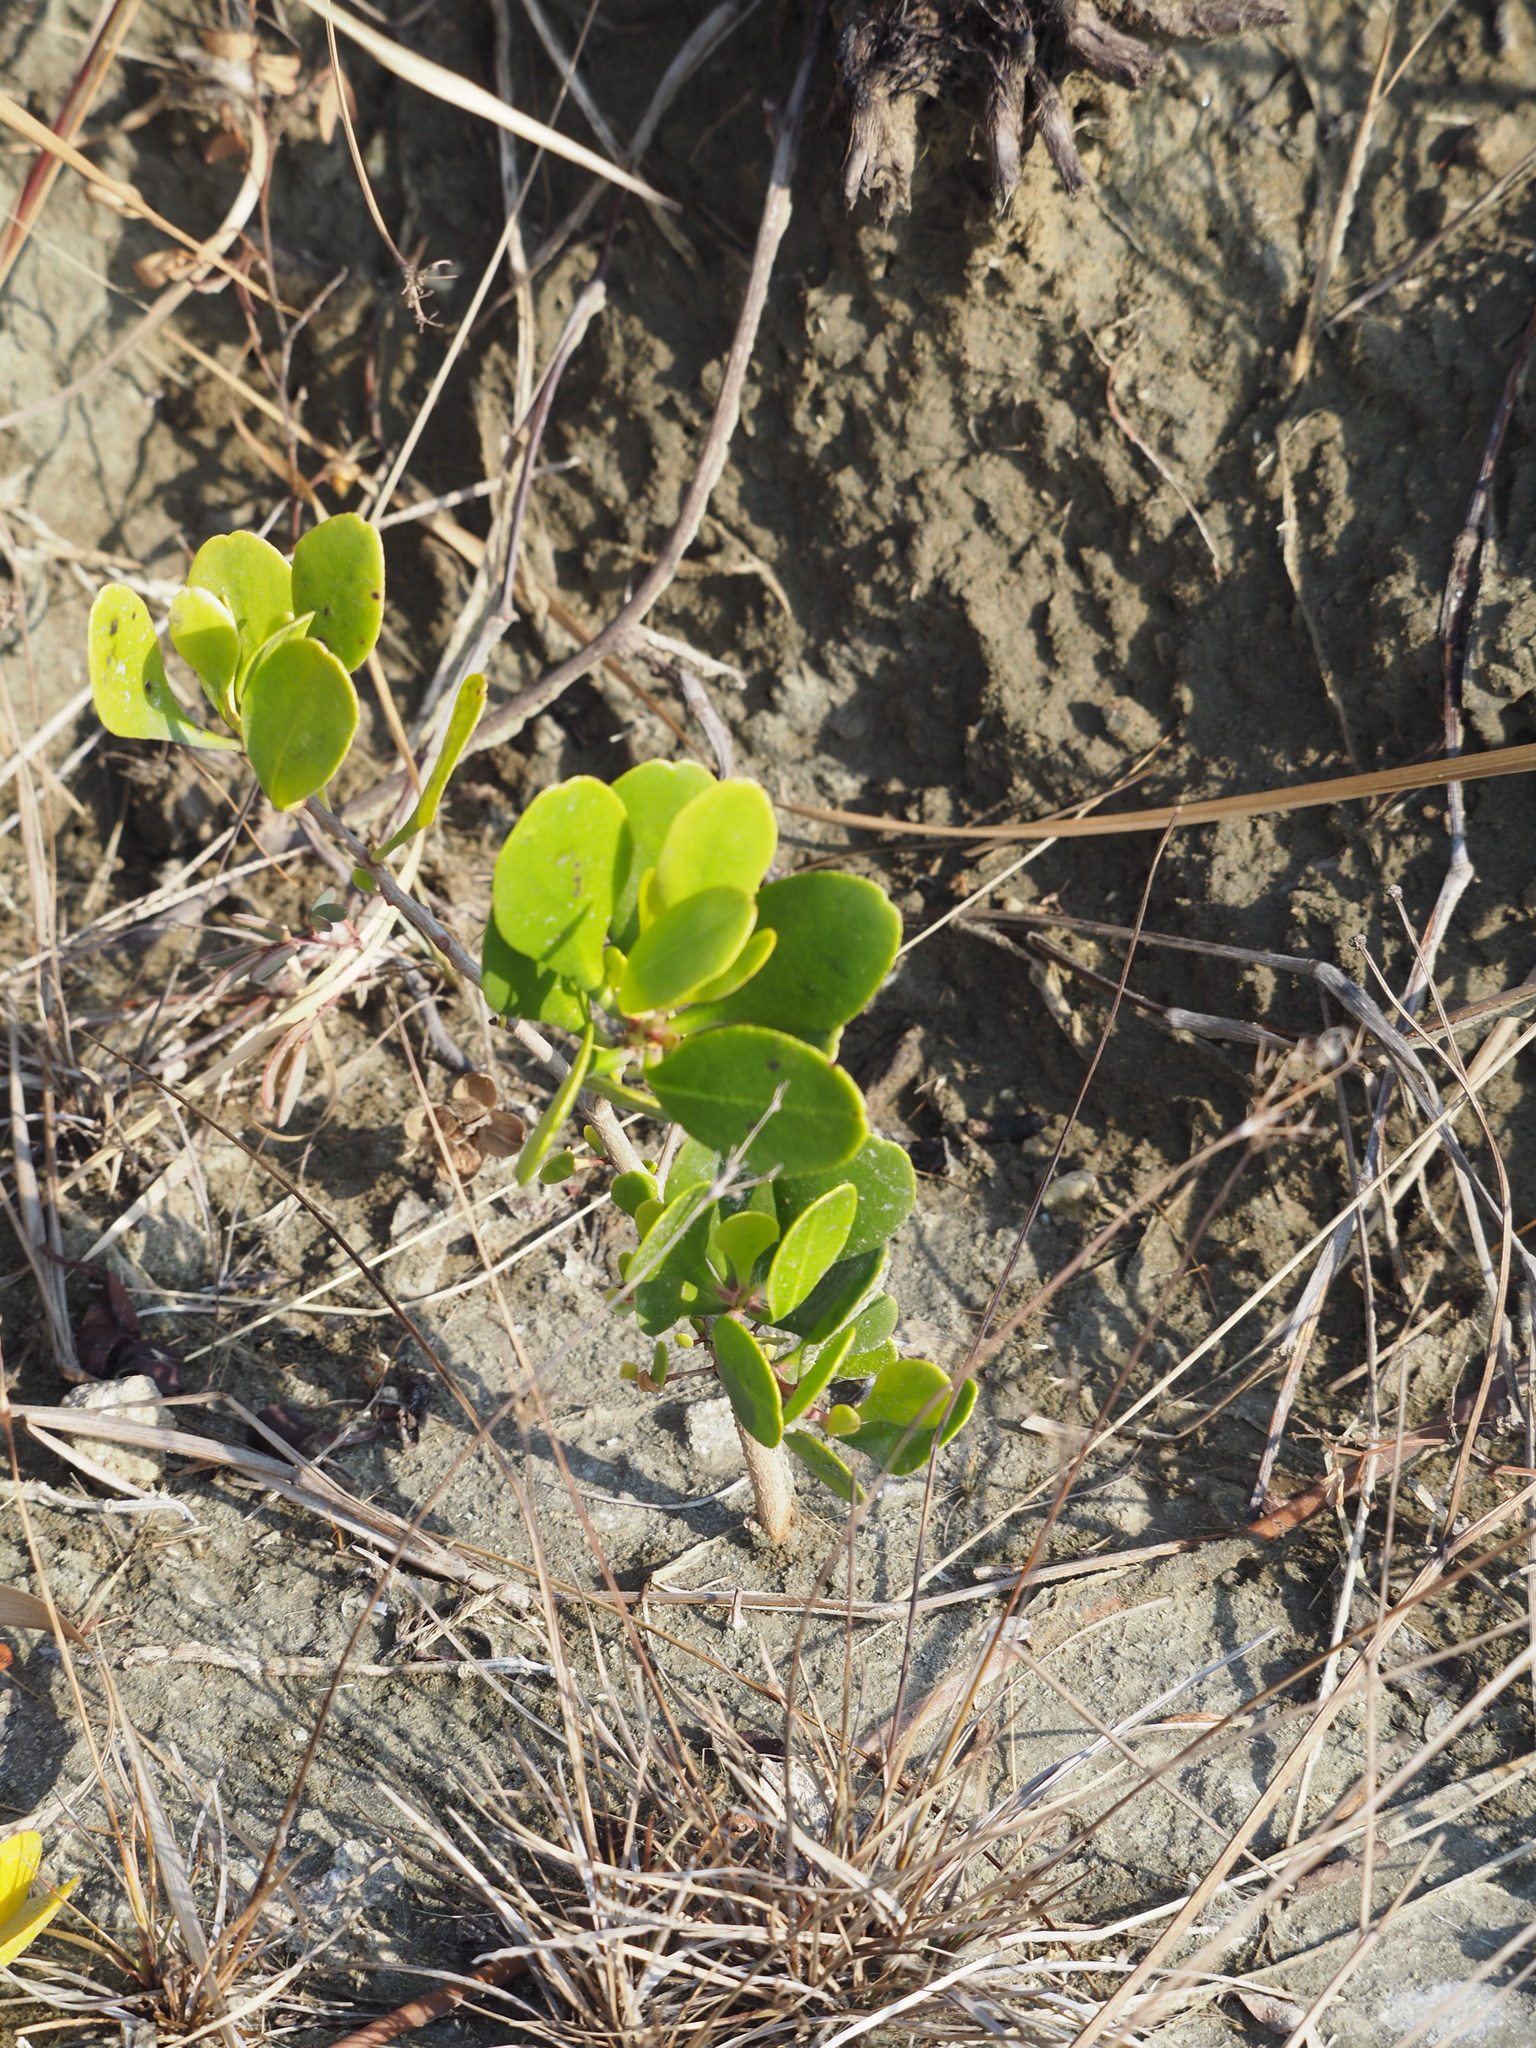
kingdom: Plantae
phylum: Tracheophyta
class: Magnoliopsida
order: Myrtales
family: Combretaceae
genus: Lumnitzera
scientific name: Lumnitzera racemosa
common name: White-flowered black mangrove
